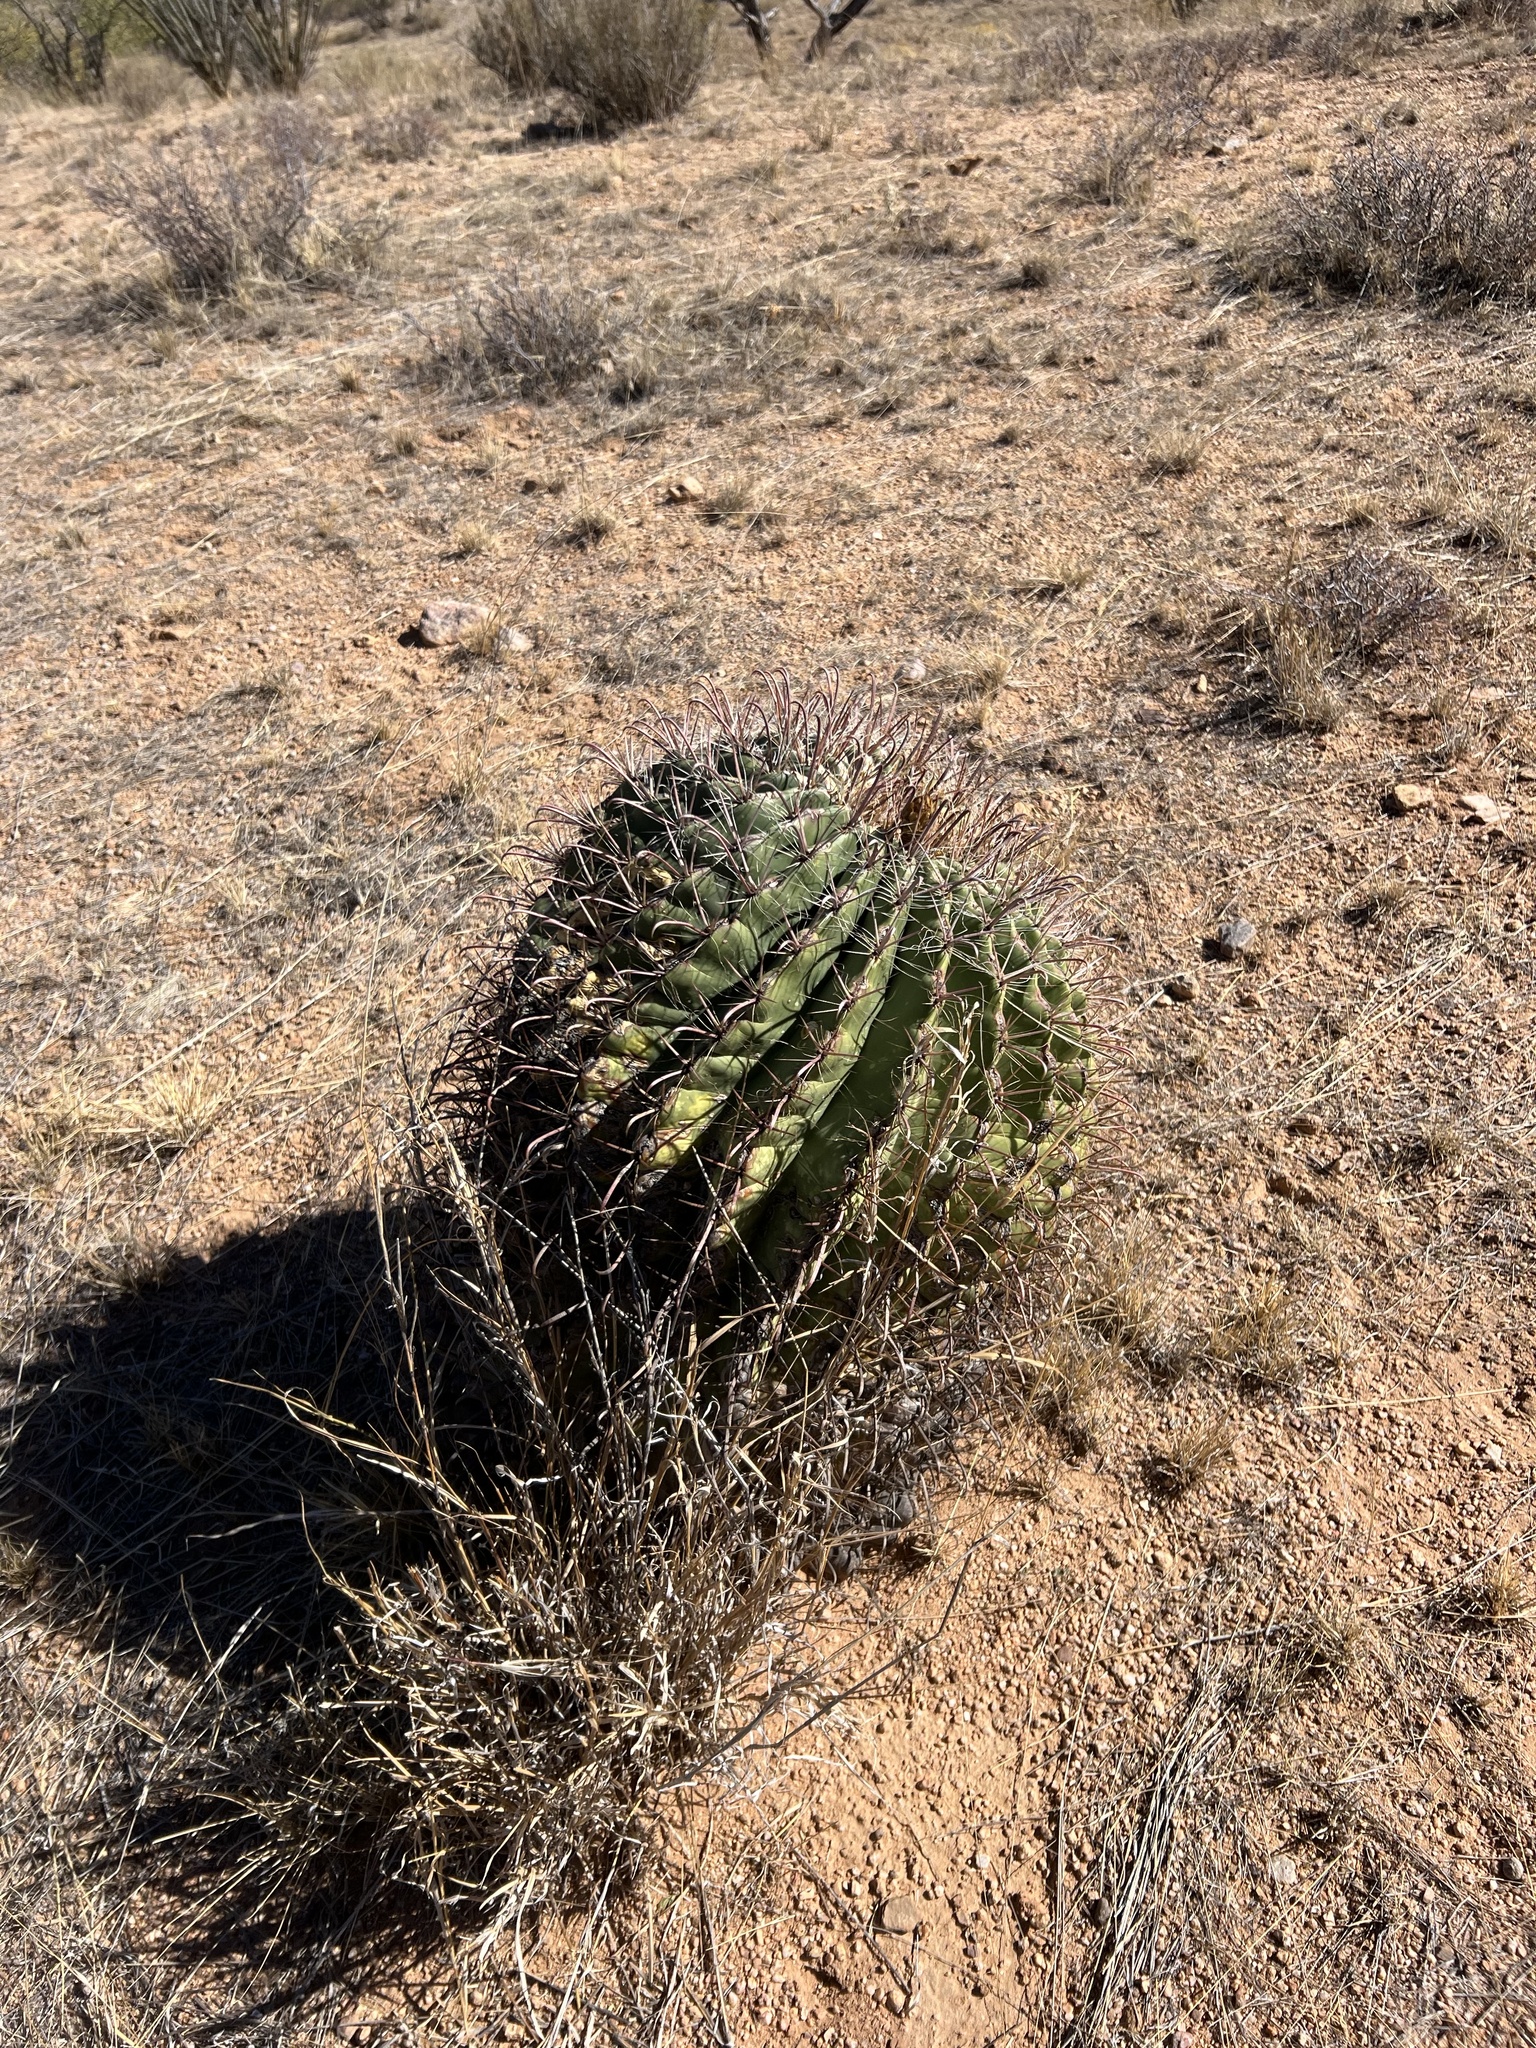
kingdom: Plantae
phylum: Tracheophyta
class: Magnoliopsida
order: Caryophyllales
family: Cactaceae
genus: Ferocactus
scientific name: Ferocactus wislizeni
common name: Candy barrel cactus
